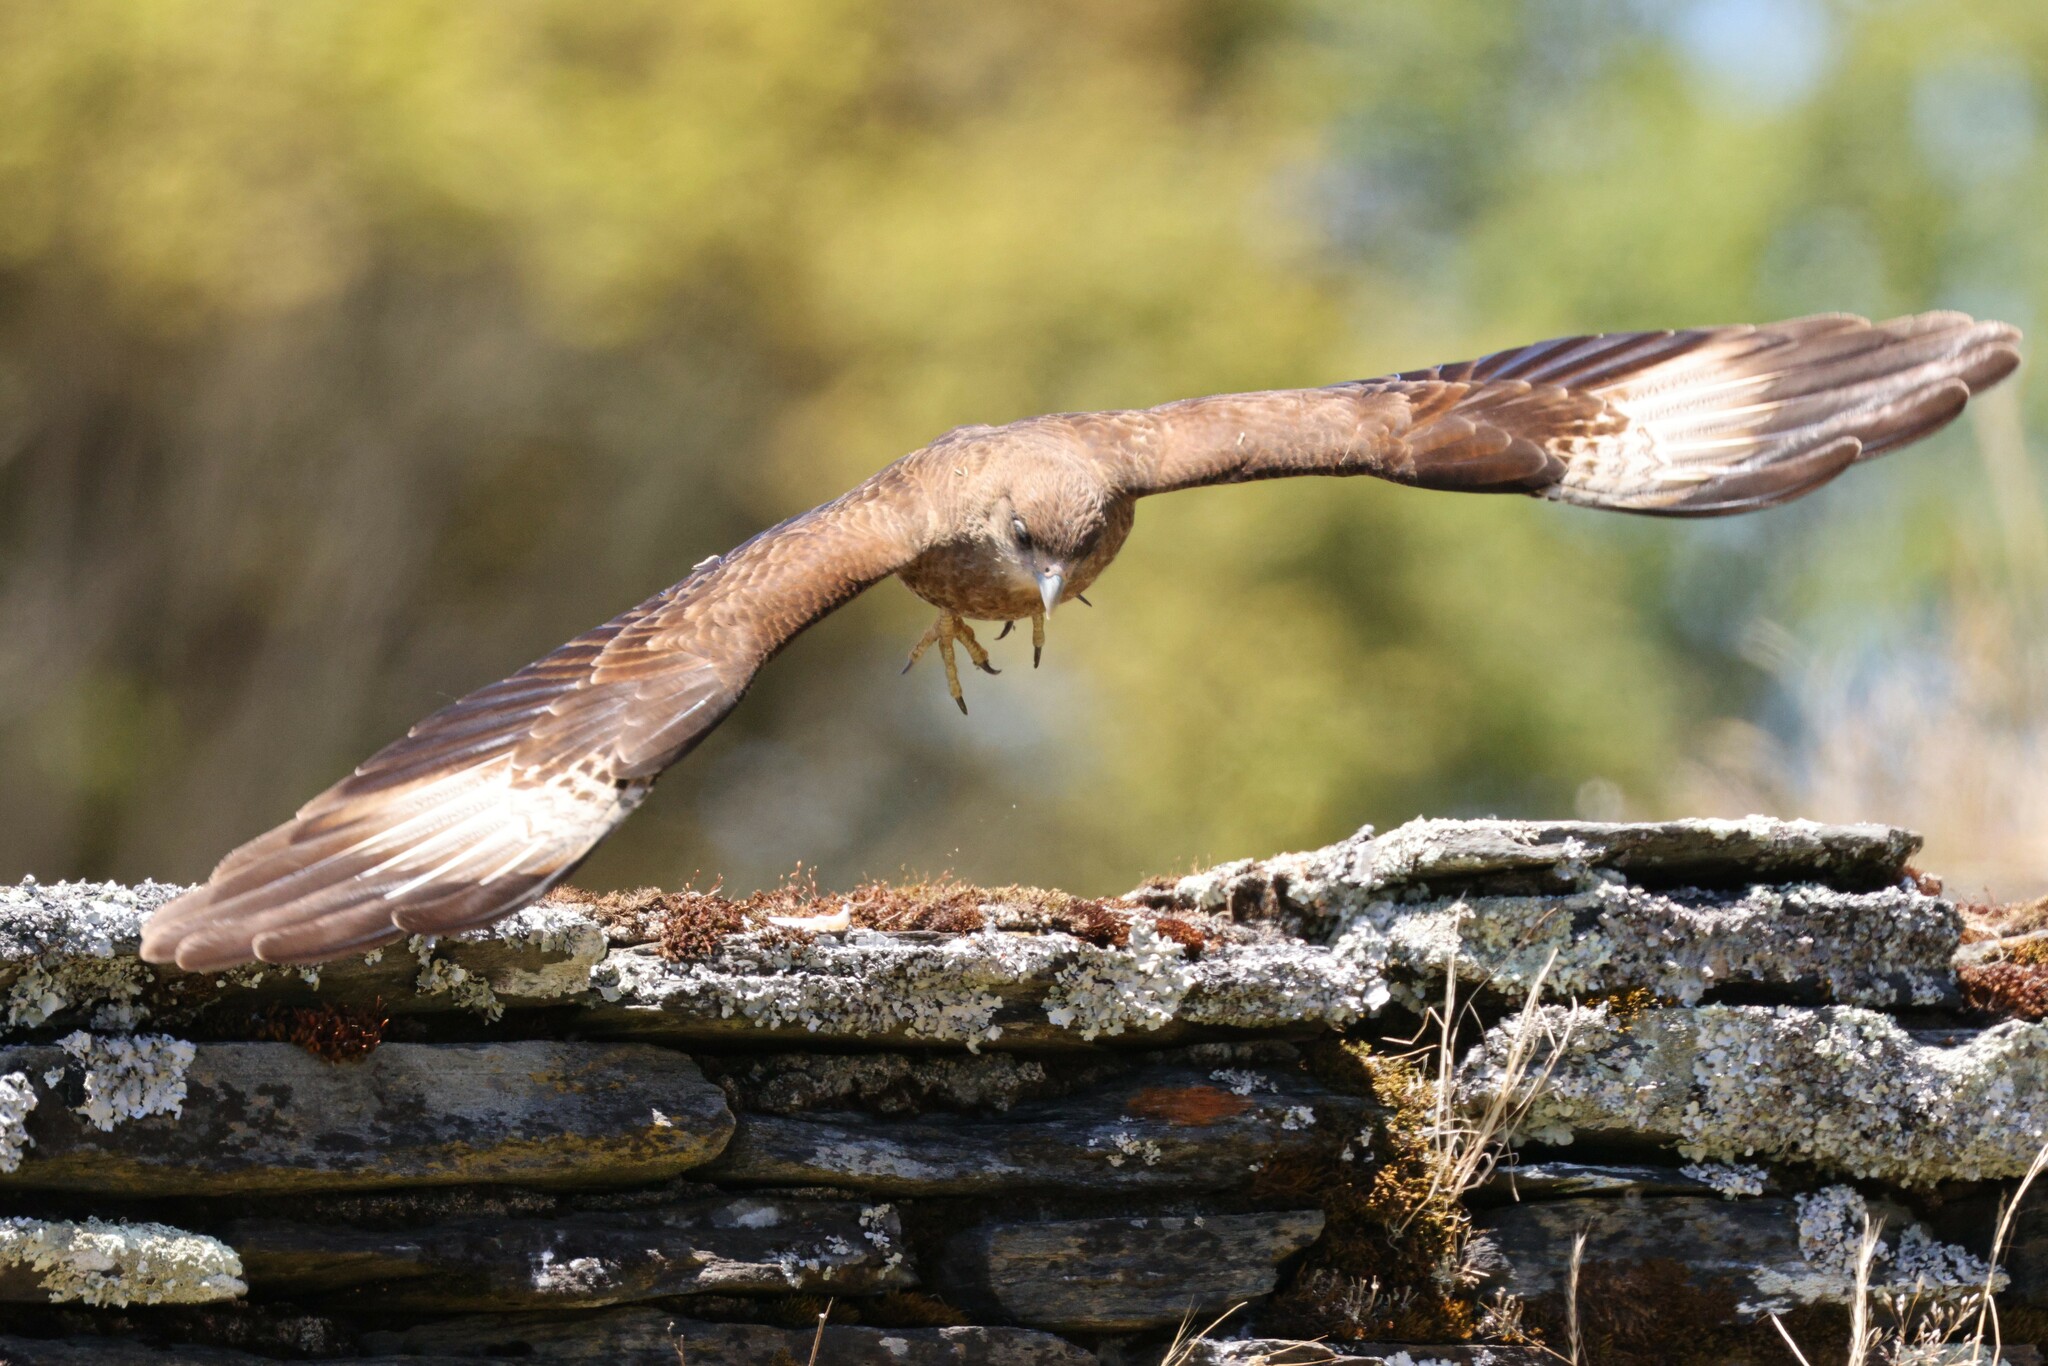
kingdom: Animalia
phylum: Chordata
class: Aves
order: Falconiformes
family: Falconidae
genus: Daptrius
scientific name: Daptrius
